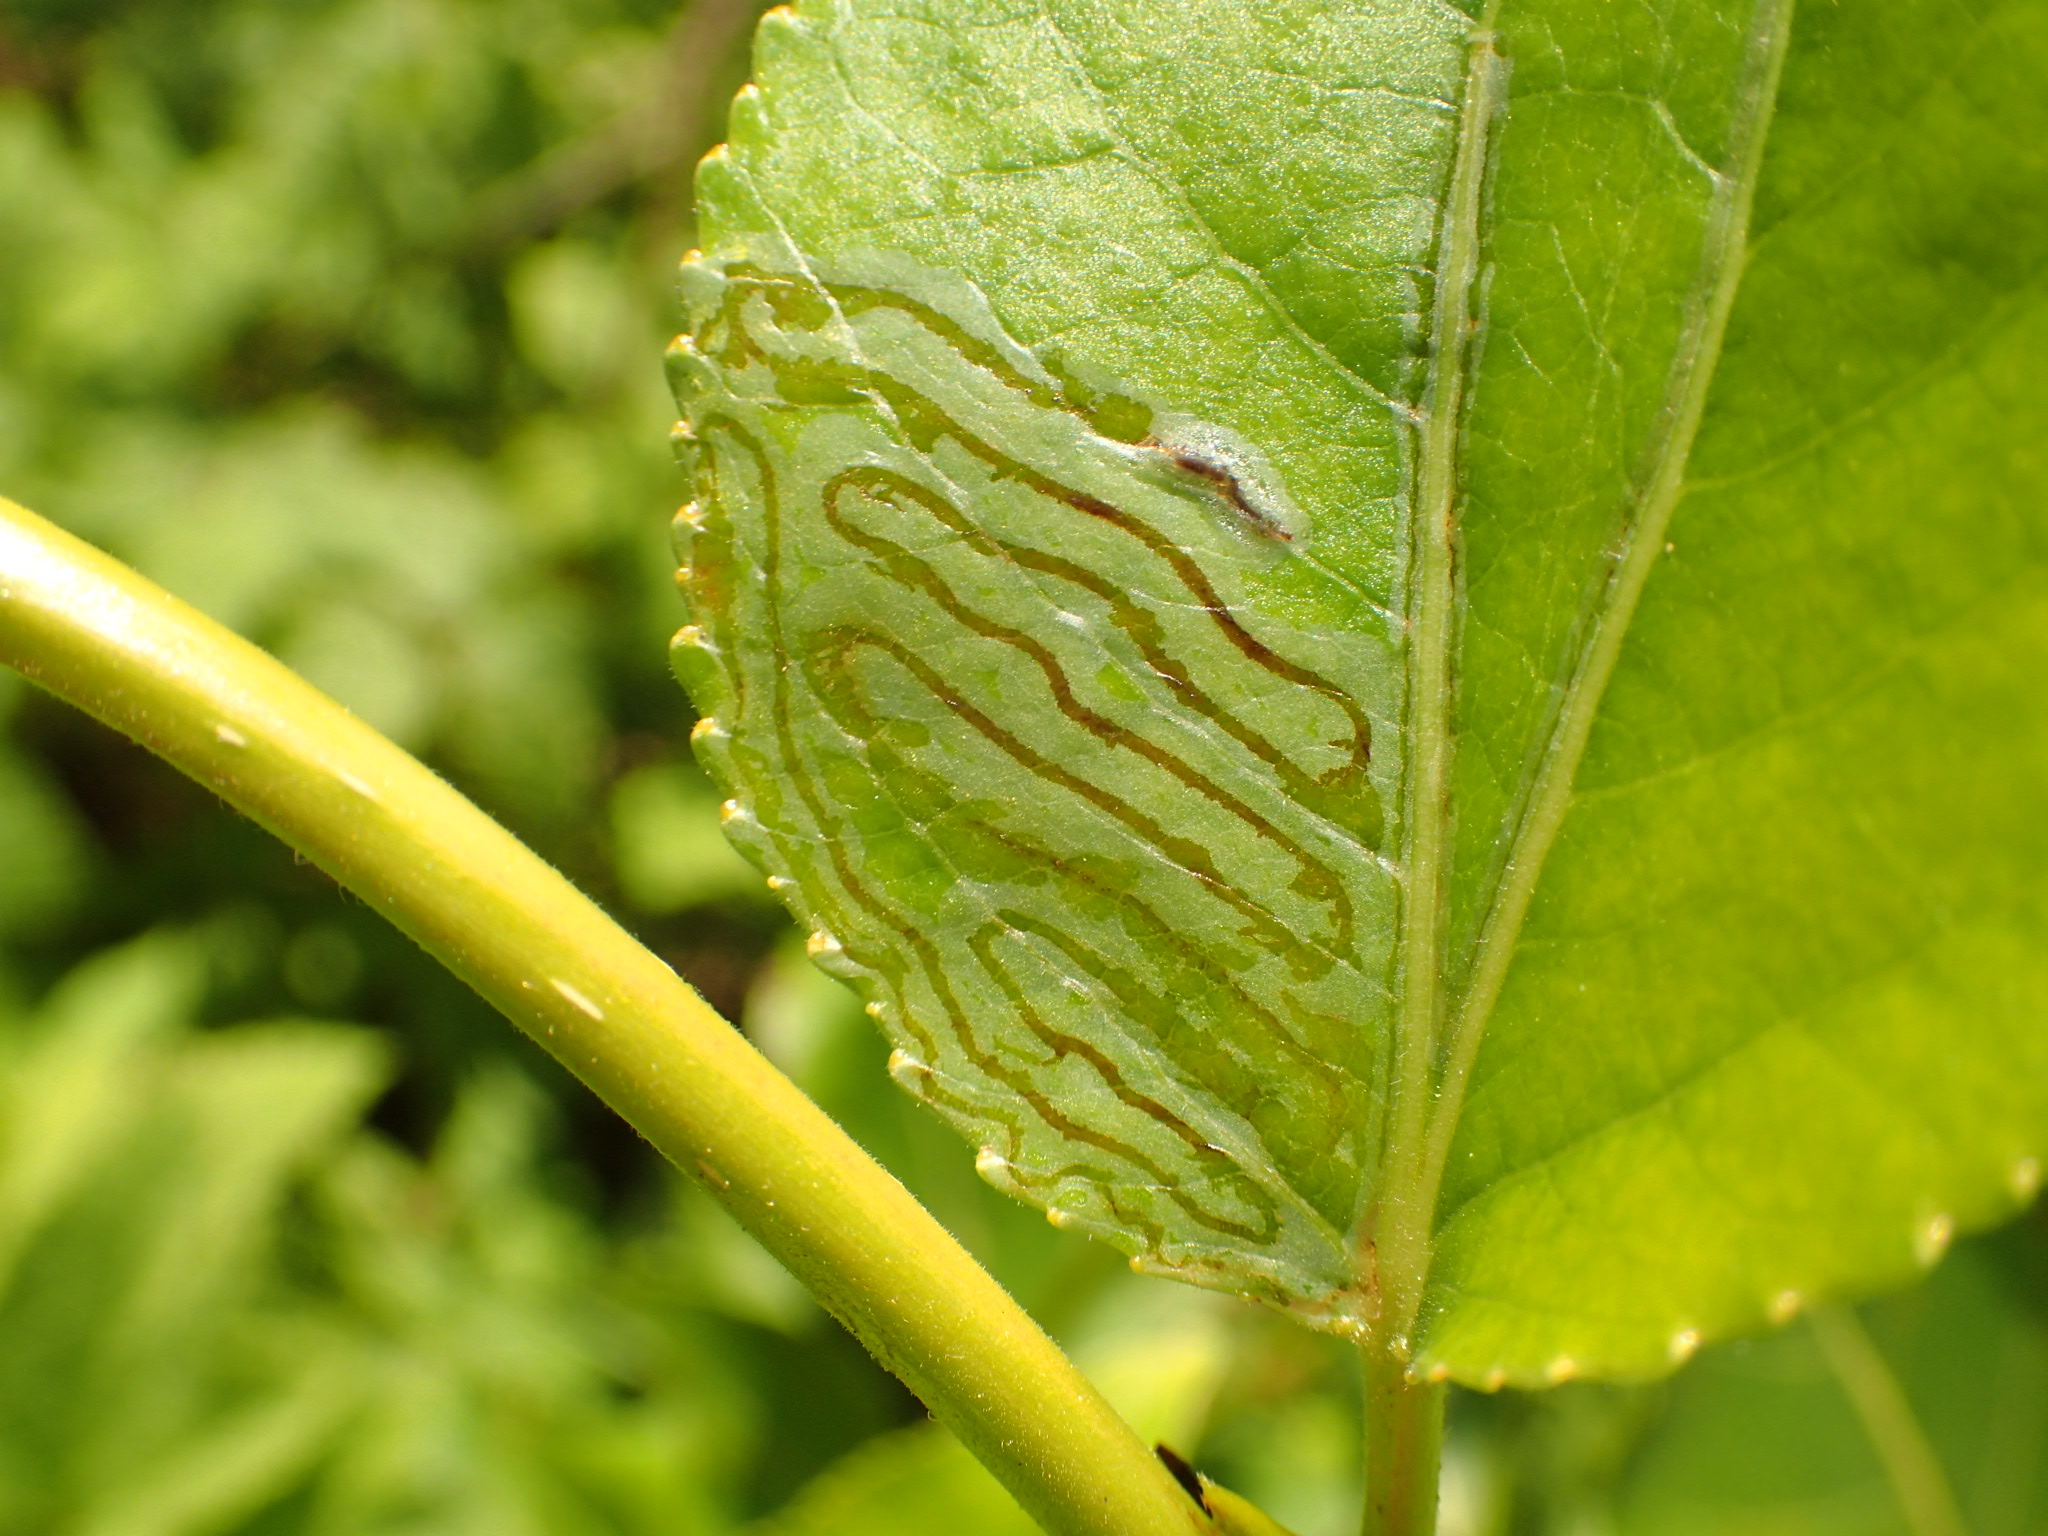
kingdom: Animalia
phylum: Arthropoda
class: Insecta
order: Lepidoptera
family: Gracillariidae
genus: Phyllocnistis
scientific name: Phyllocnistis populiella
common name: Aspen serpentine leafminer moth
